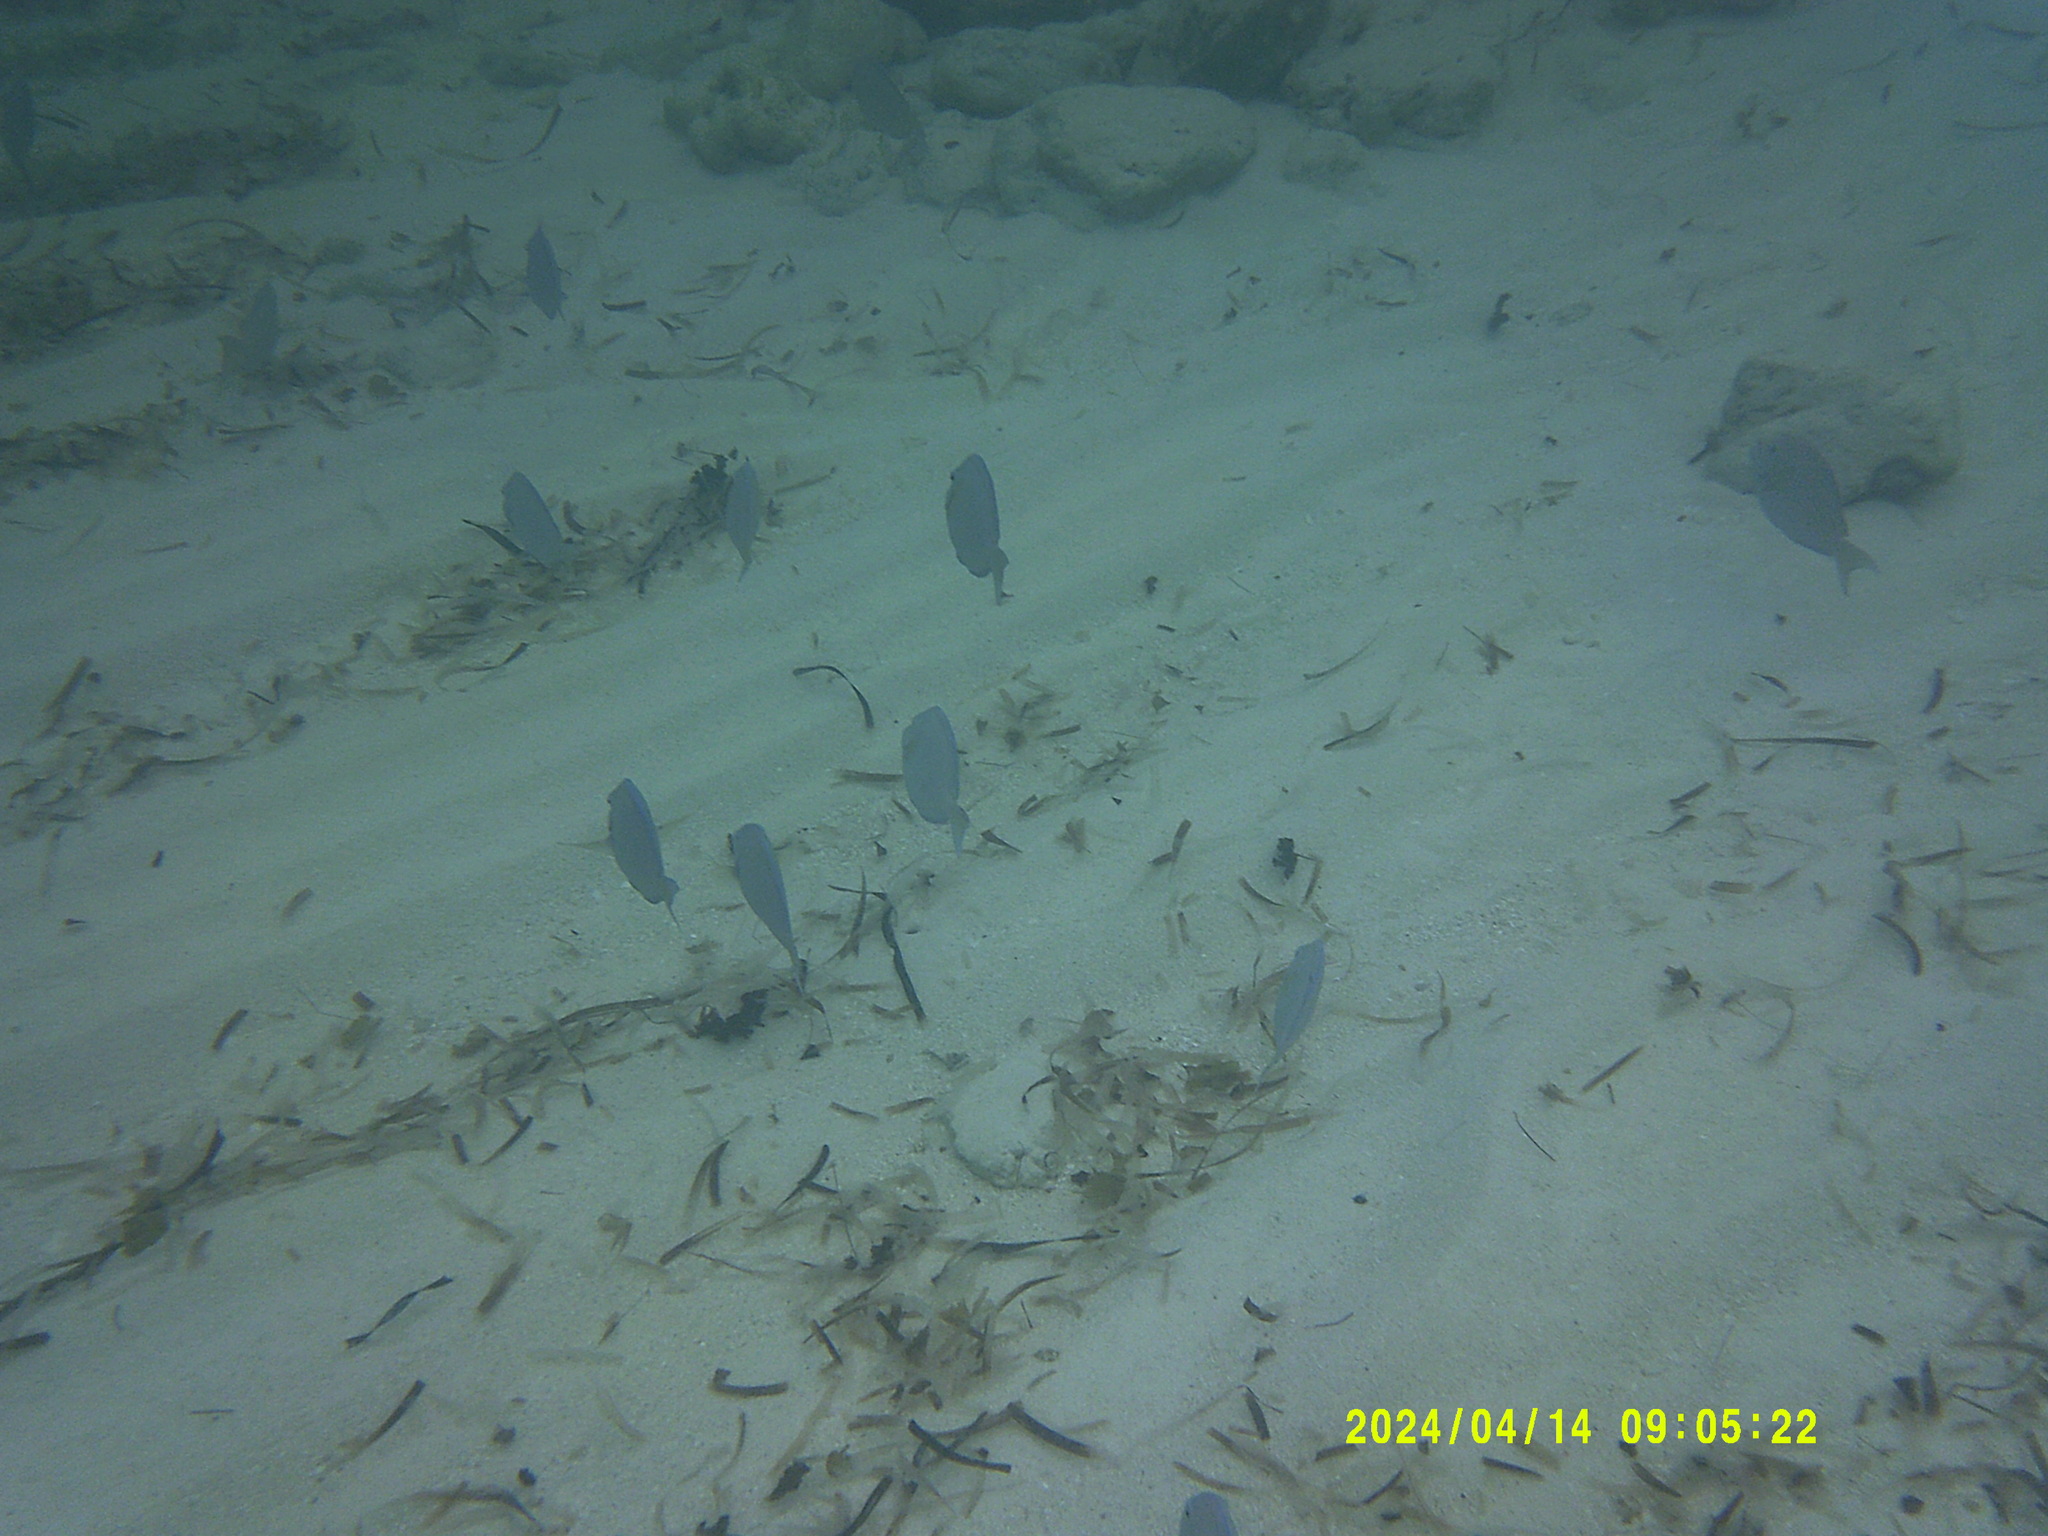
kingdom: Animalia
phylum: Chordata
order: Perciformes
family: Acanthuridae
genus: Acanthurus
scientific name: Acanthurus coeruleus
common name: Blue tang
